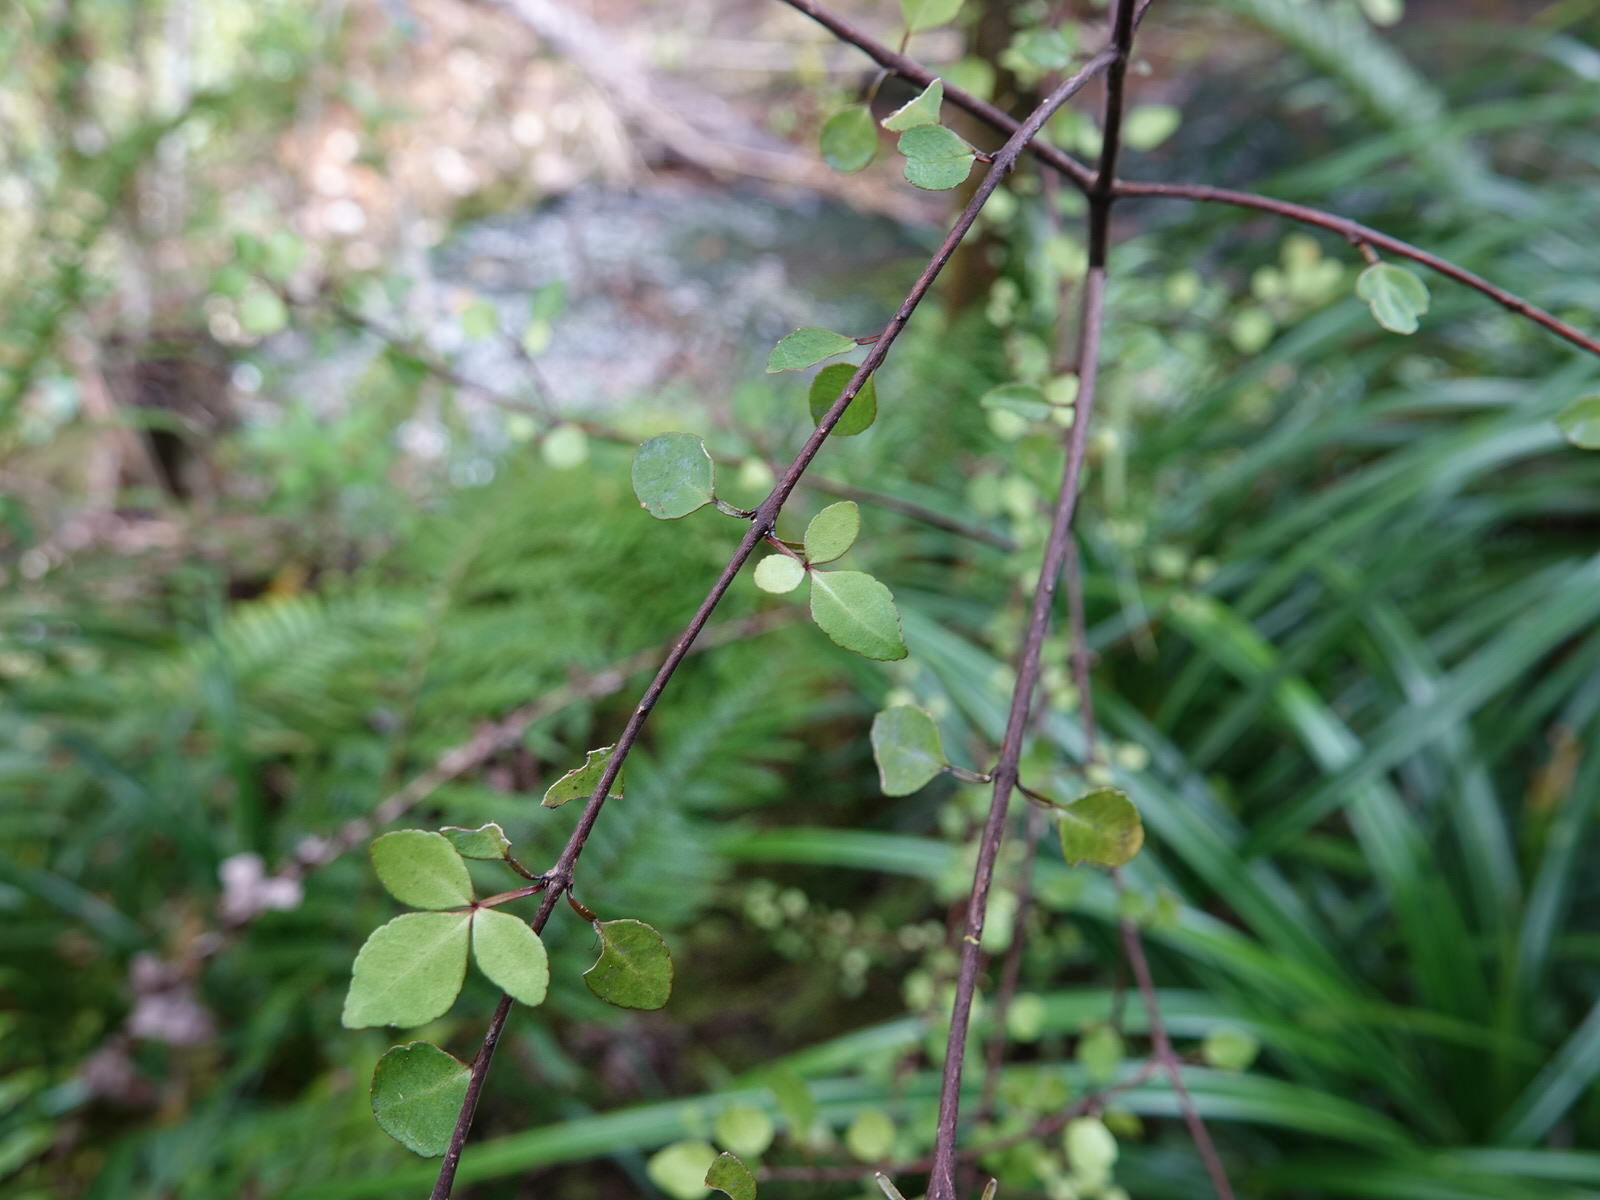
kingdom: Plantae
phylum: Tracheophyta
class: Magnoliopsida
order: Sapindales
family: Rutaceae
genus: Melicope
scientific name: Melicope simplex
